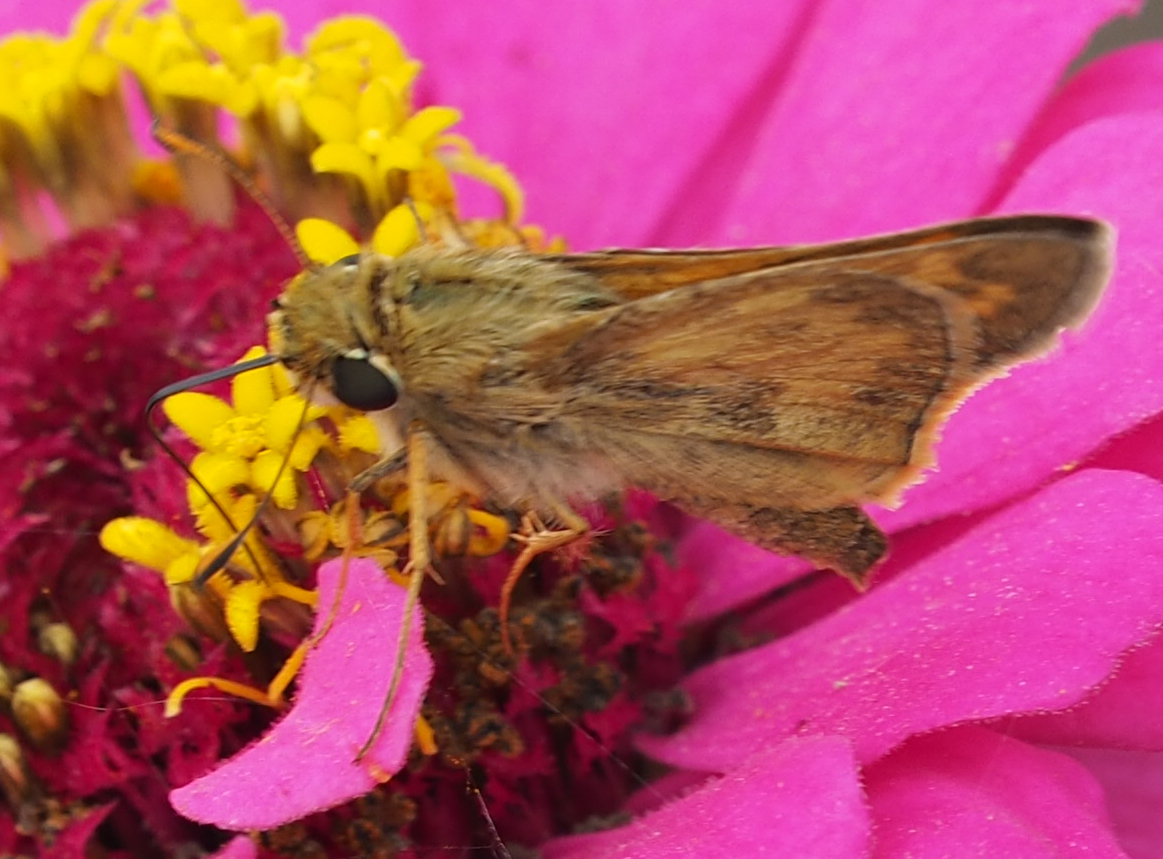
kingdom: Animalia
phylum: Arthropoda
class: Insecta
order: Lepidoptera
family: Hesperiidae
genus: Atalopedes
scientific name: Atalopedes
